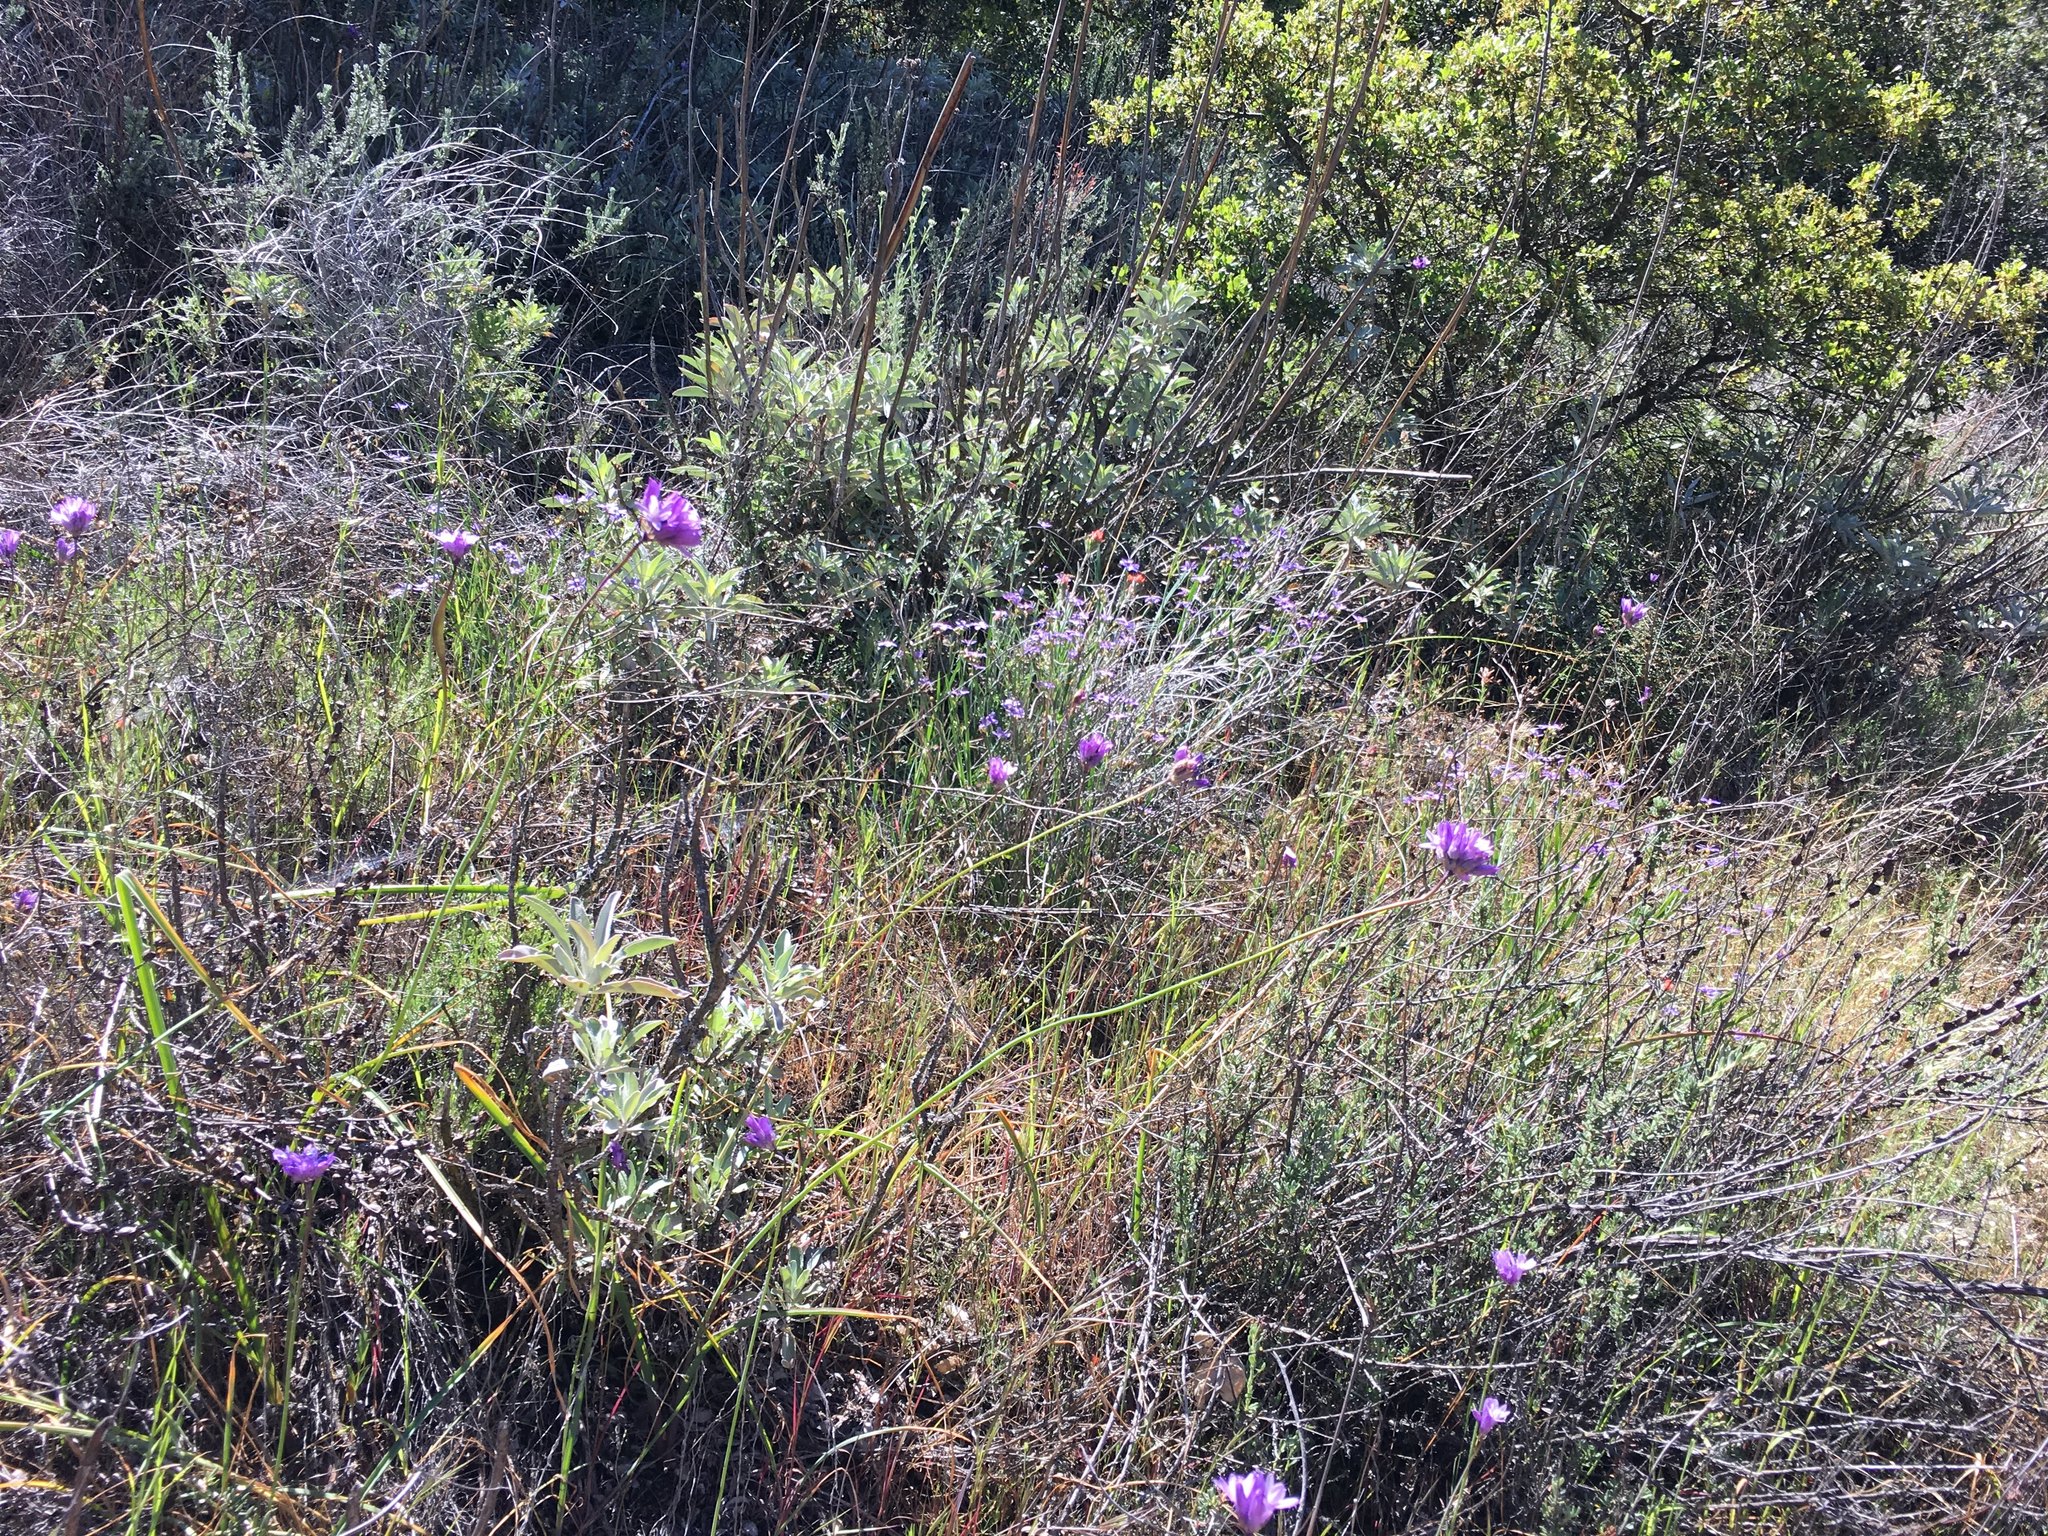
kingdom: Plantae
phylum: Tracheophyta
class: Liliopsida
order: Asparagales
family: Asparagaceae
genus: Dipterostemon
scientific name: Dipterostemon capitatus
